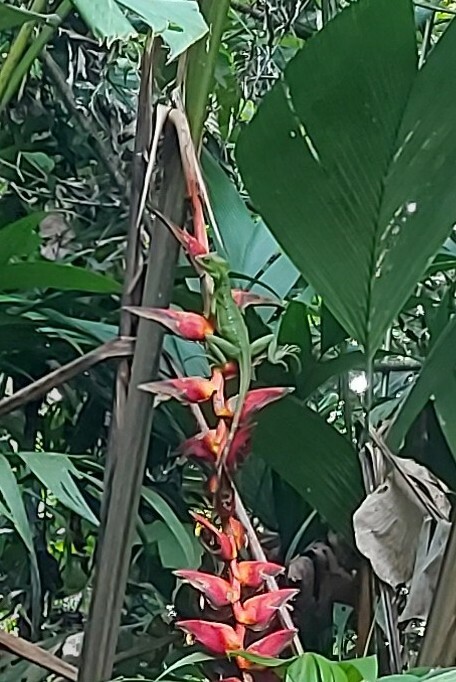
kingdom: Animalia
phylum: Chordata
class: Squamata
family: Corytophanidae
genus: Basiliscus
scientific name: Basiliscus plumifrons
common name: Green basilisk
